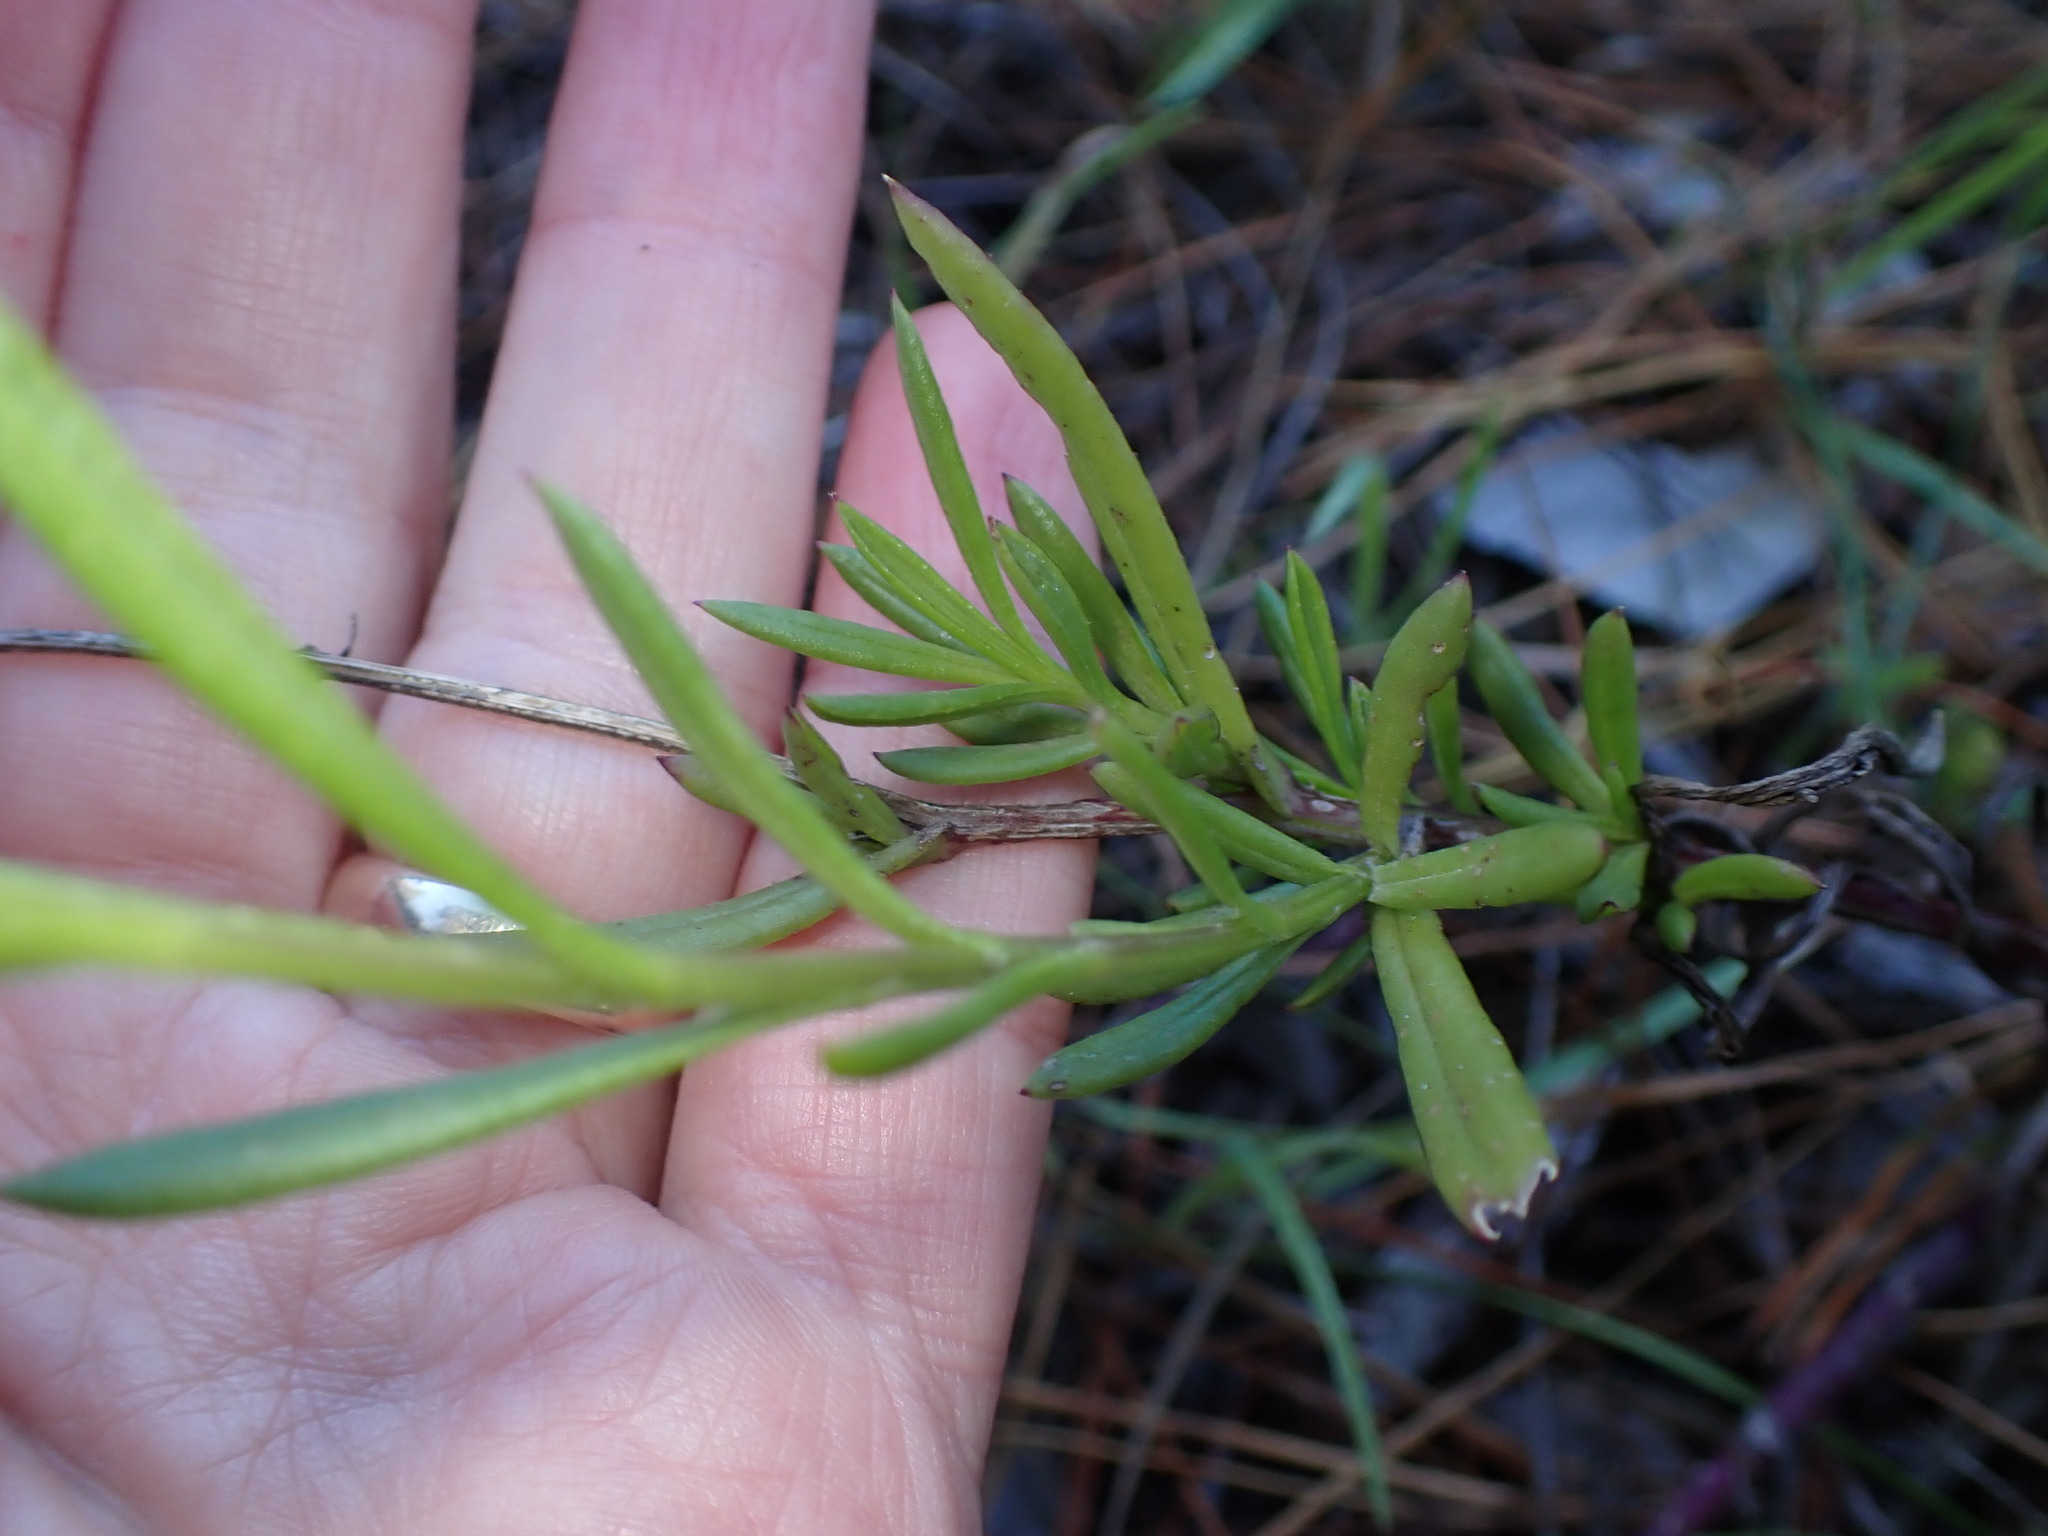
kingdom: Plantae
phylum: Tracheophyta
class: Magnoliopsida
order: Asterales
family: Asteraceae
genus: Senecio
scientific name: Senecio skirrhodon
